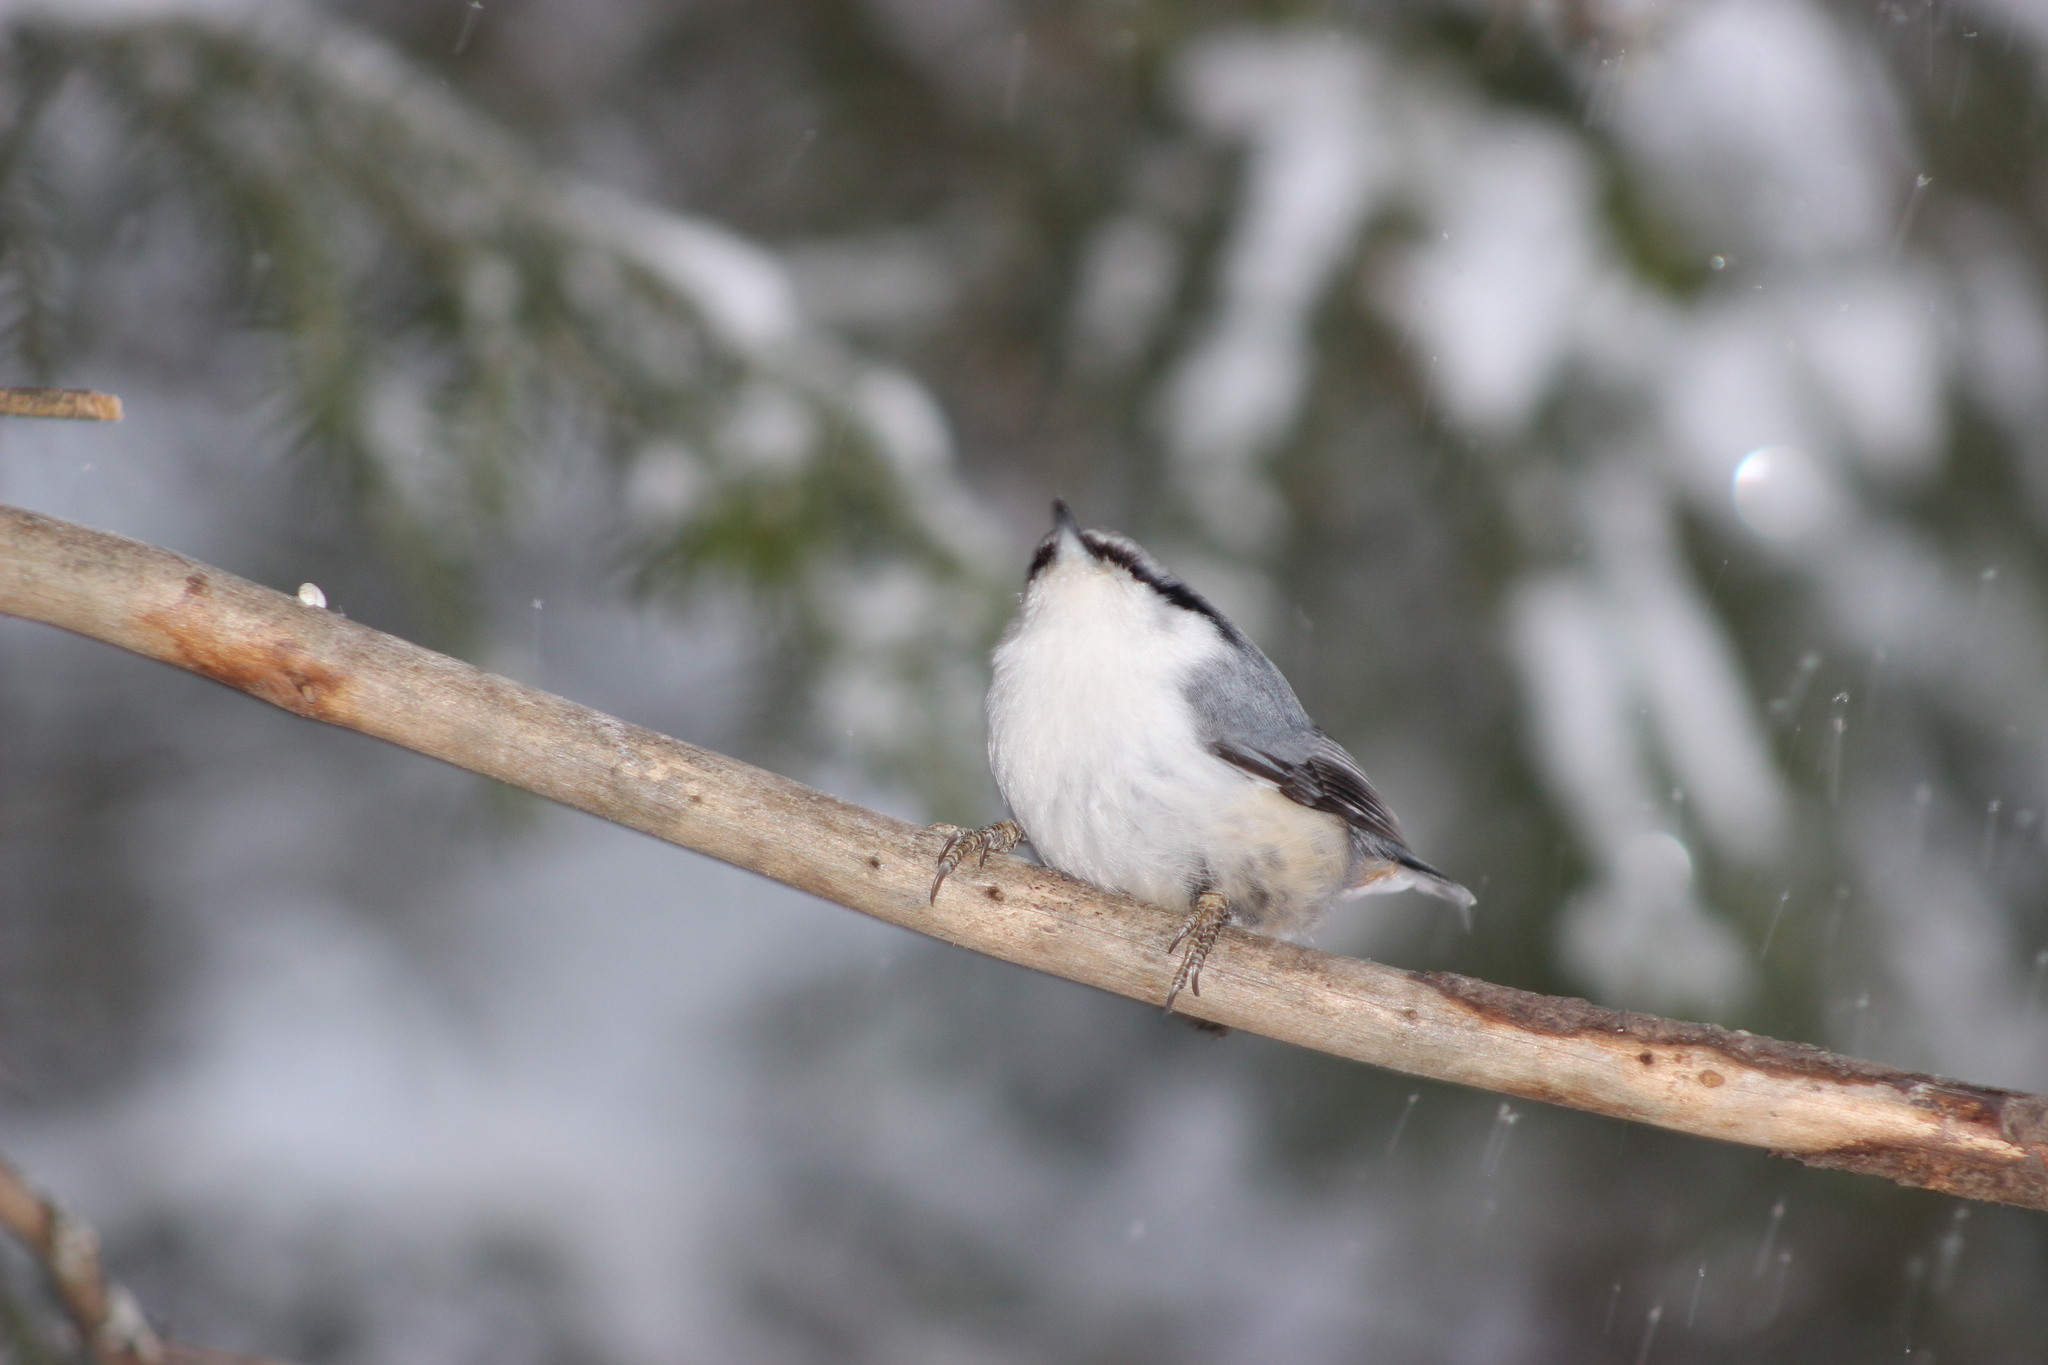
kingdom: Animalia
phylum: Chordata
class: Aves
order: Passeriformes
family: Sittidae
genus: Sitta
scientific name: Sitta europaea
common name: Eurasian nuthatch
